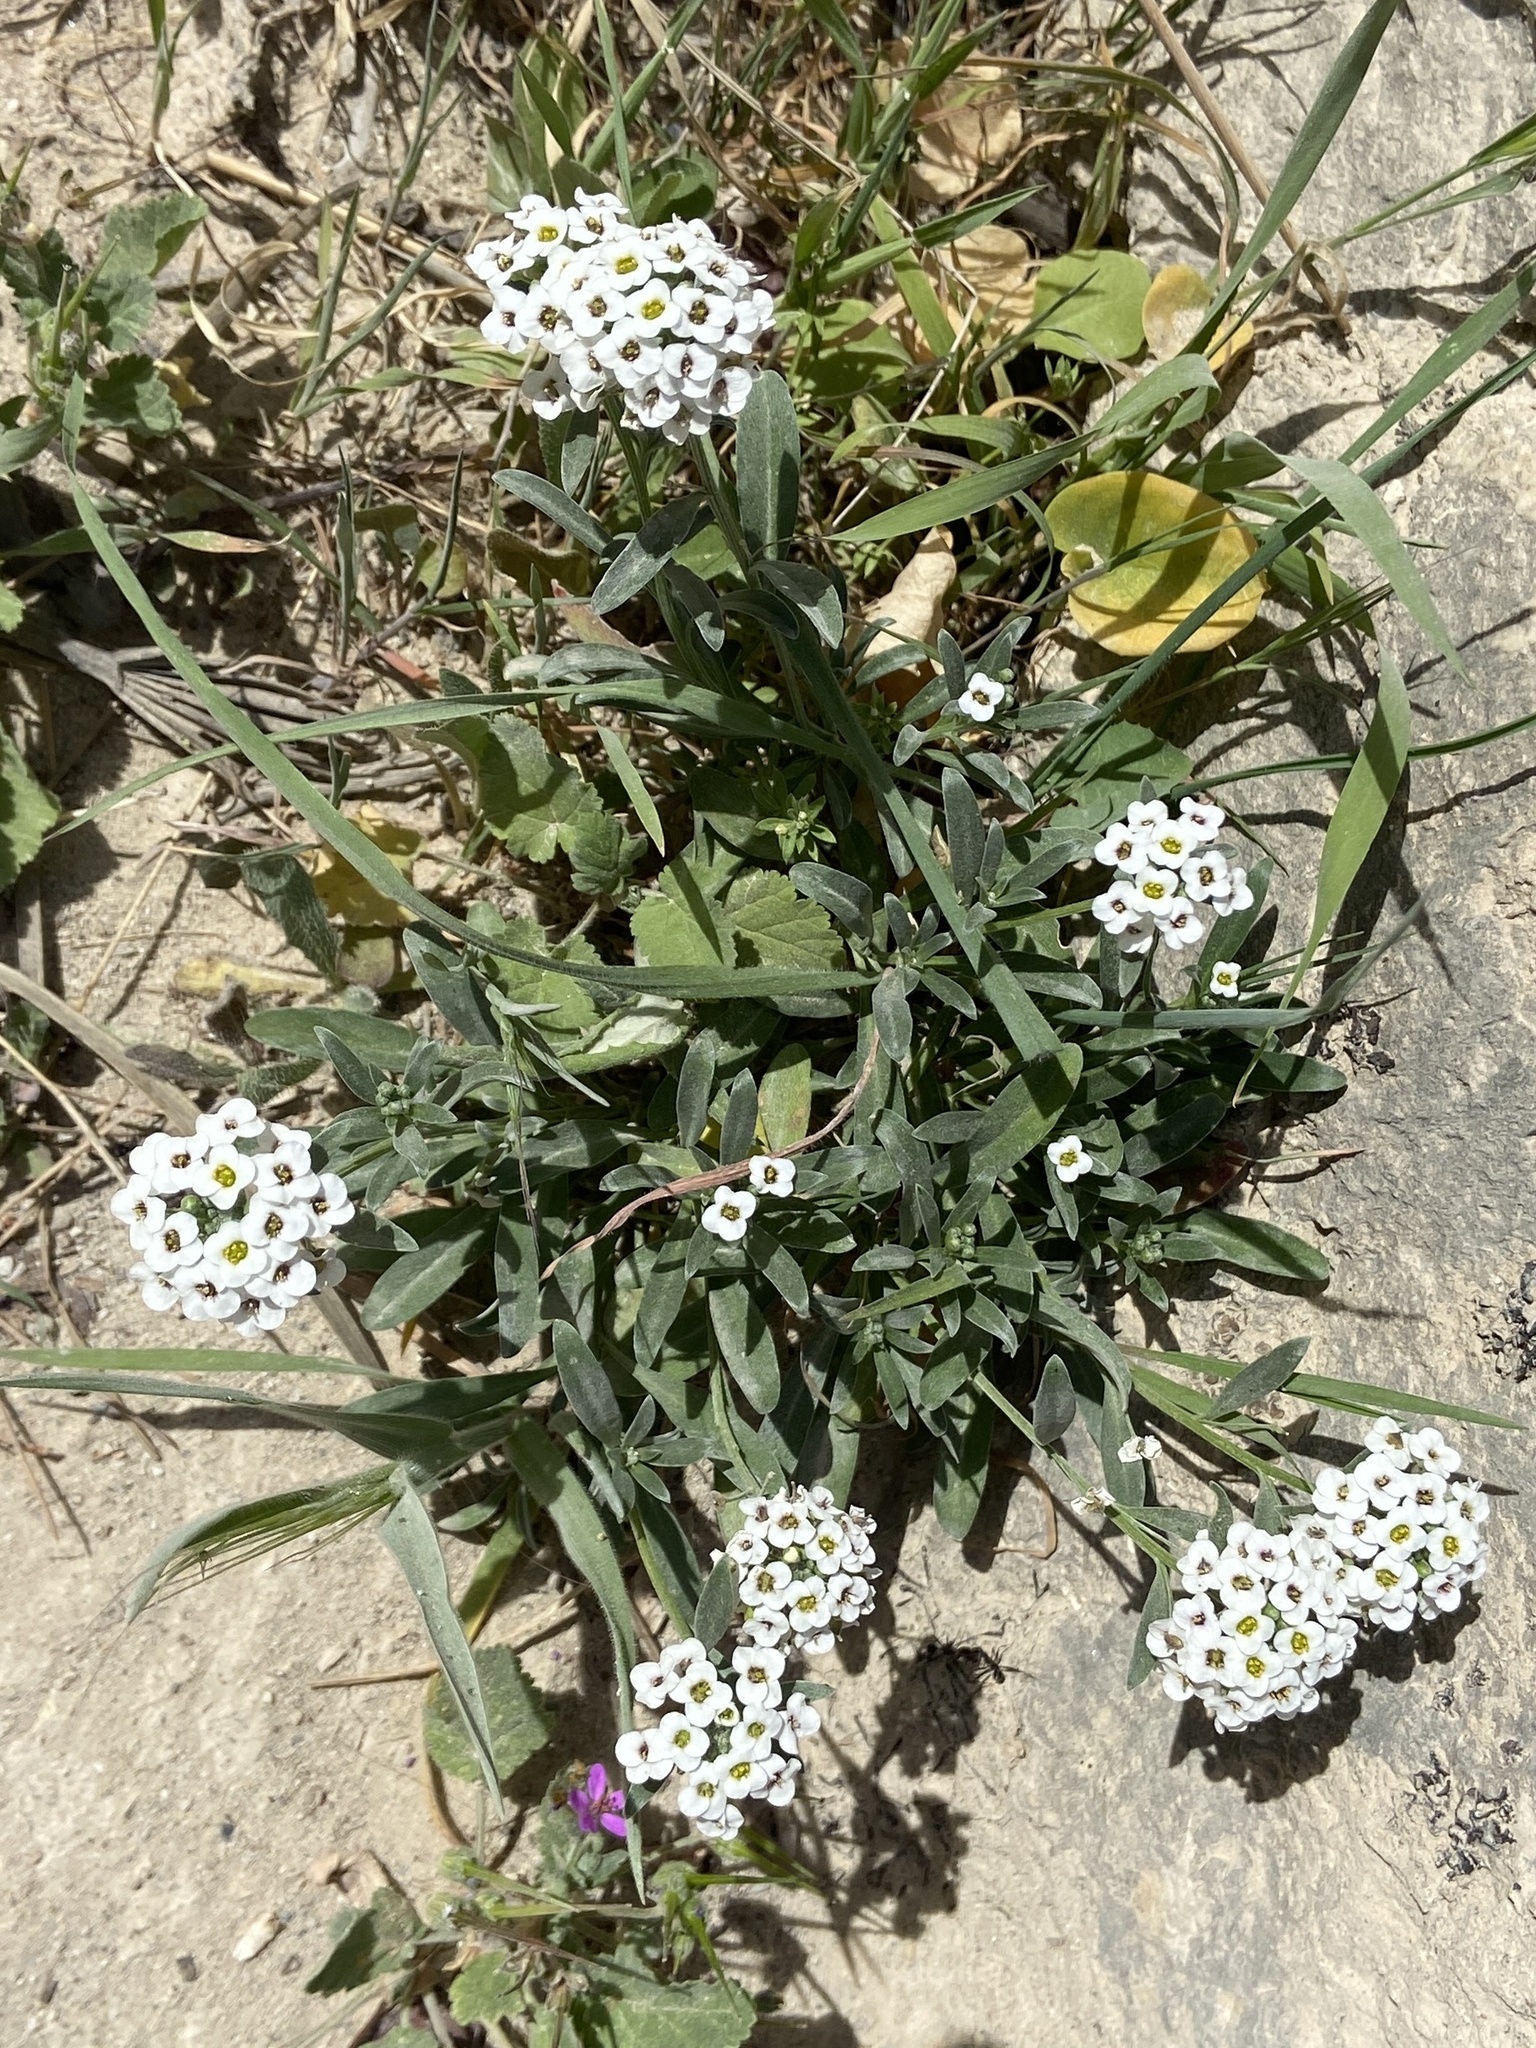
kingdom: Plantae
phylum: Tracheophyta
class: Magnoliopsida
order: Brassicales
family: Brassicaceae
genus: Lobularia
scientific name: Lobularia maritima
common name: Sweet alison
